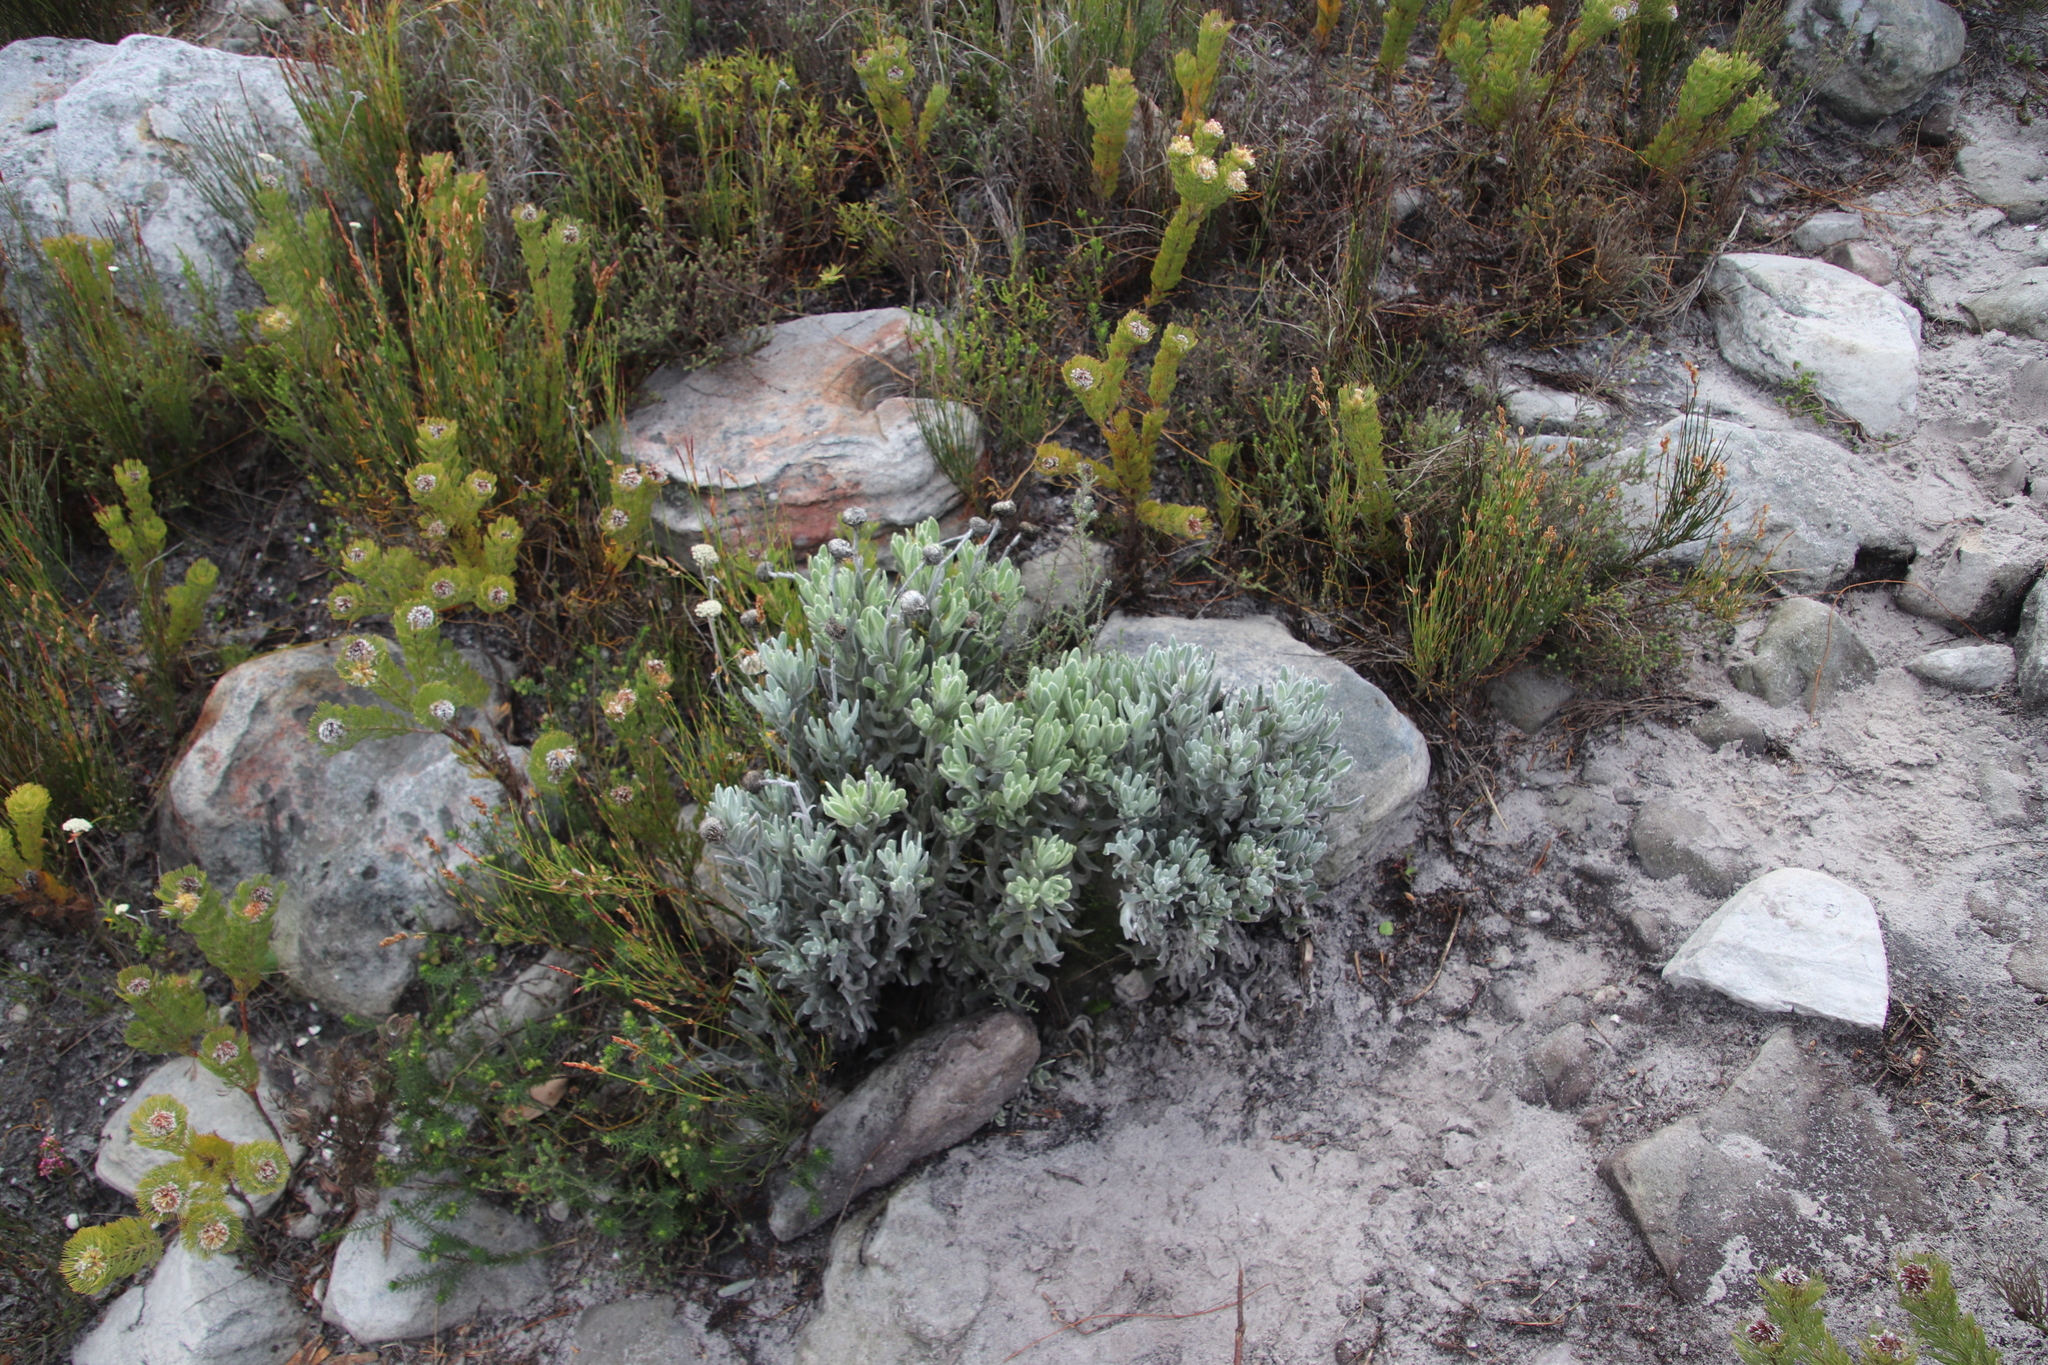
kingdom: Plantae
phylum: Tracheophyta
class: Magnoliopsida
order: Asterales
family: Asteraceae
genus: Syncarpha
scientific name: Syncarpha vestita
